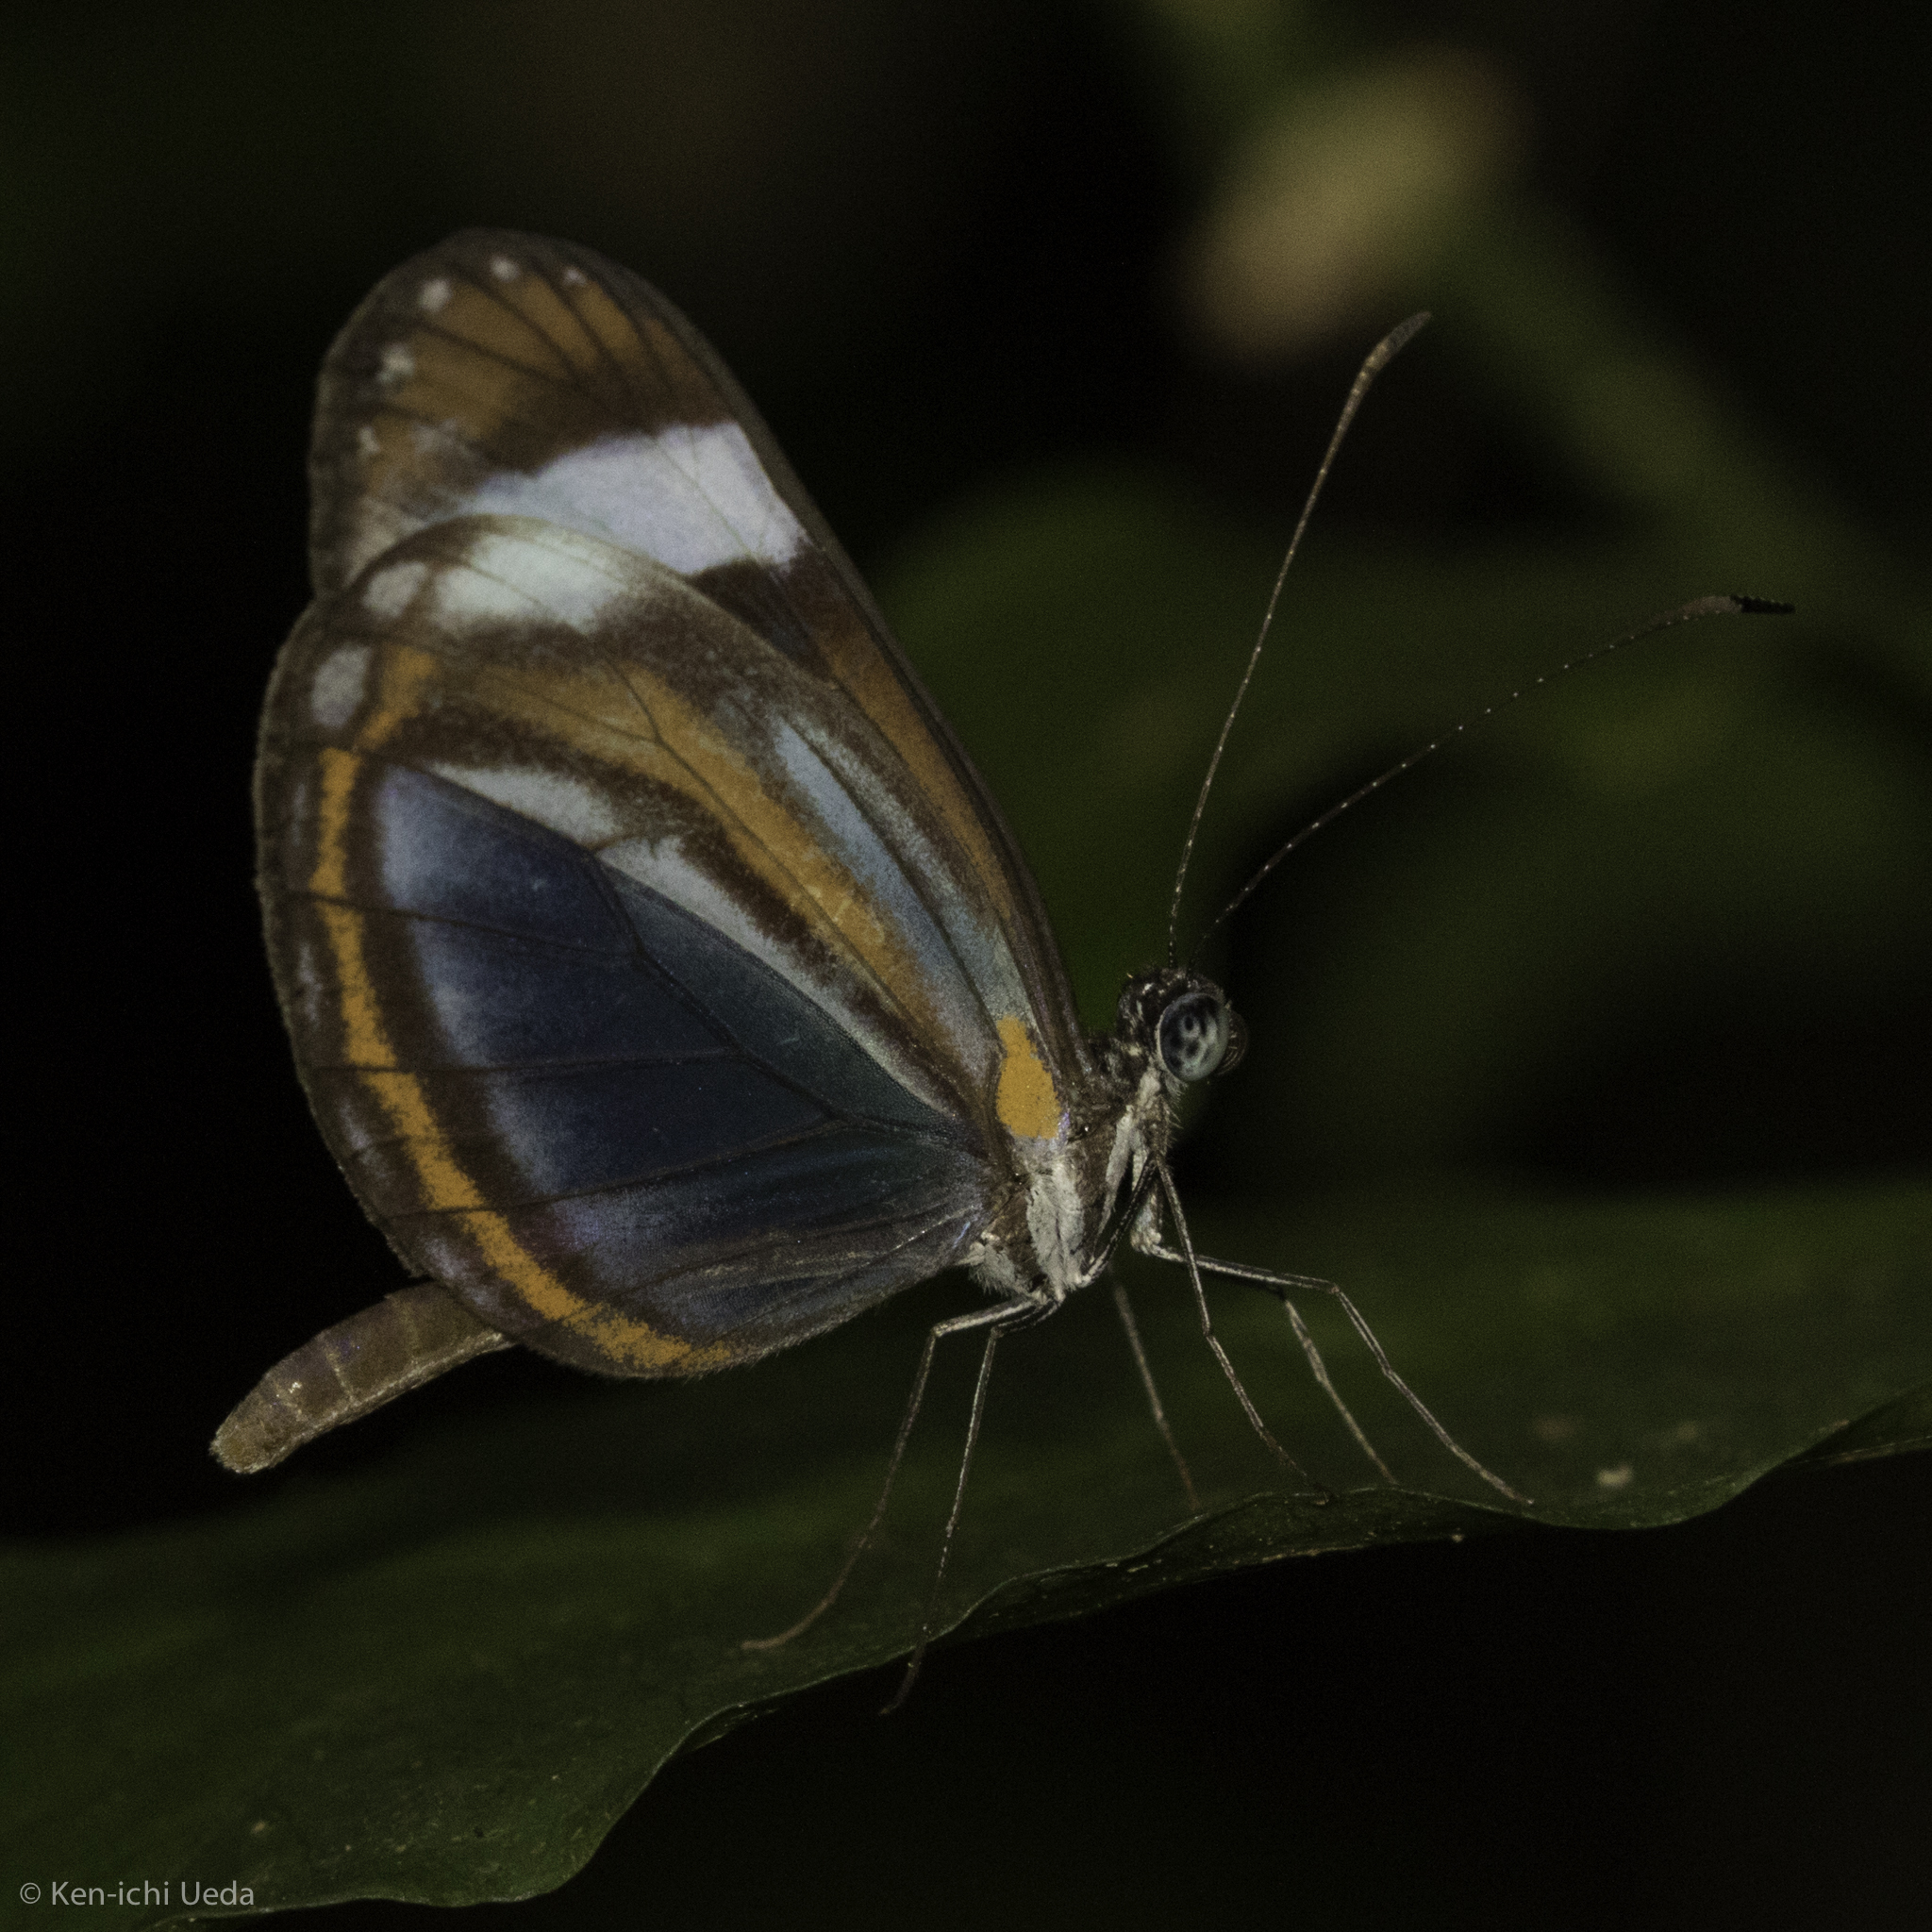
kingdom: Animalia
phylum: Arthropoda
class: Insecta
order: Lepidoptera
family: Pieridae
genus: Dismorphia
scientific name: Dismorphia theucharila
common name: Clearwing mimic-white
